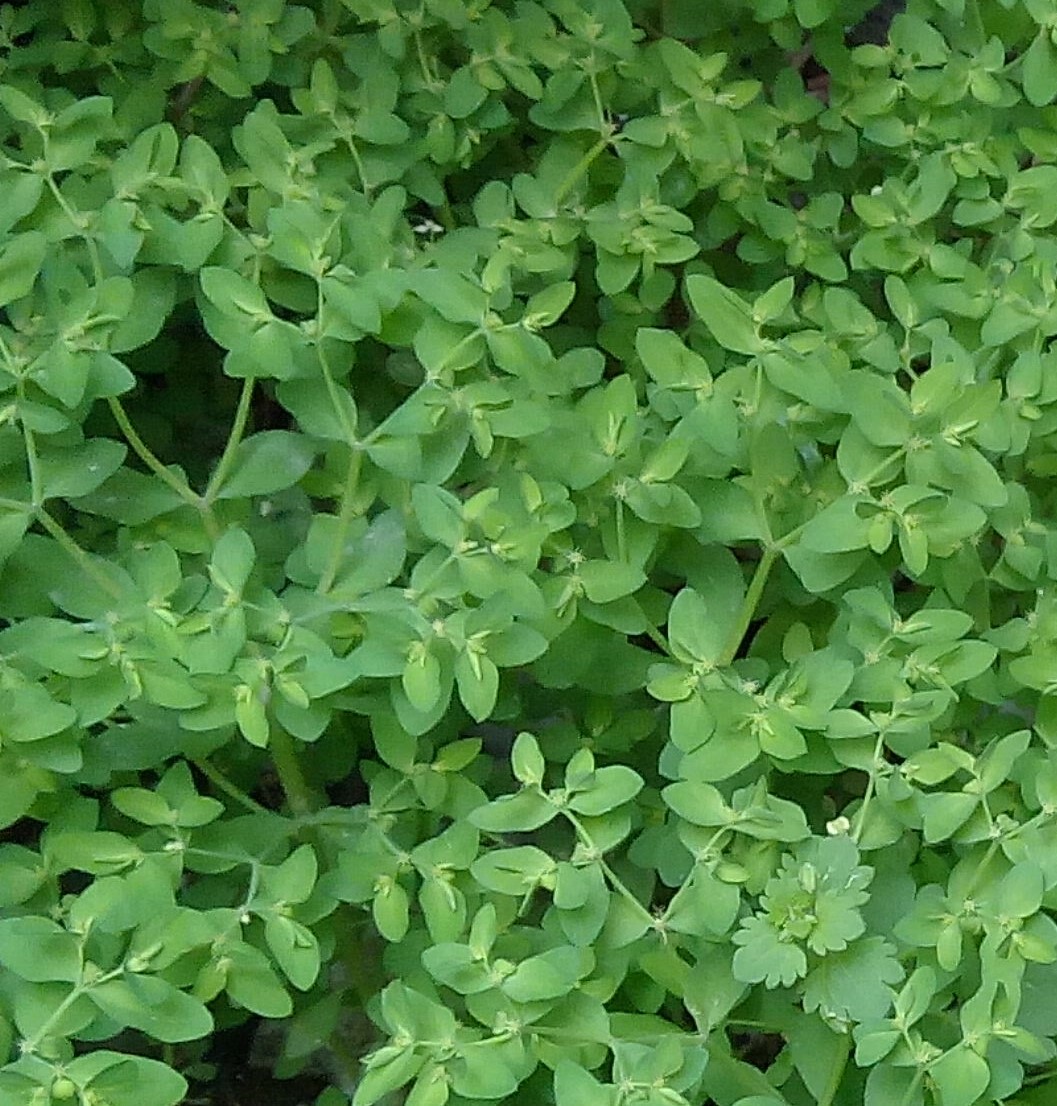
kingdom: Plantae
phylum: Tracheophyta
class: Magnoliopsida
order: Malpighiales
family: Euphorbiaceae
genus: Euphorbia
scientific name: Euphorbia peplus
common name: Petty spurge
